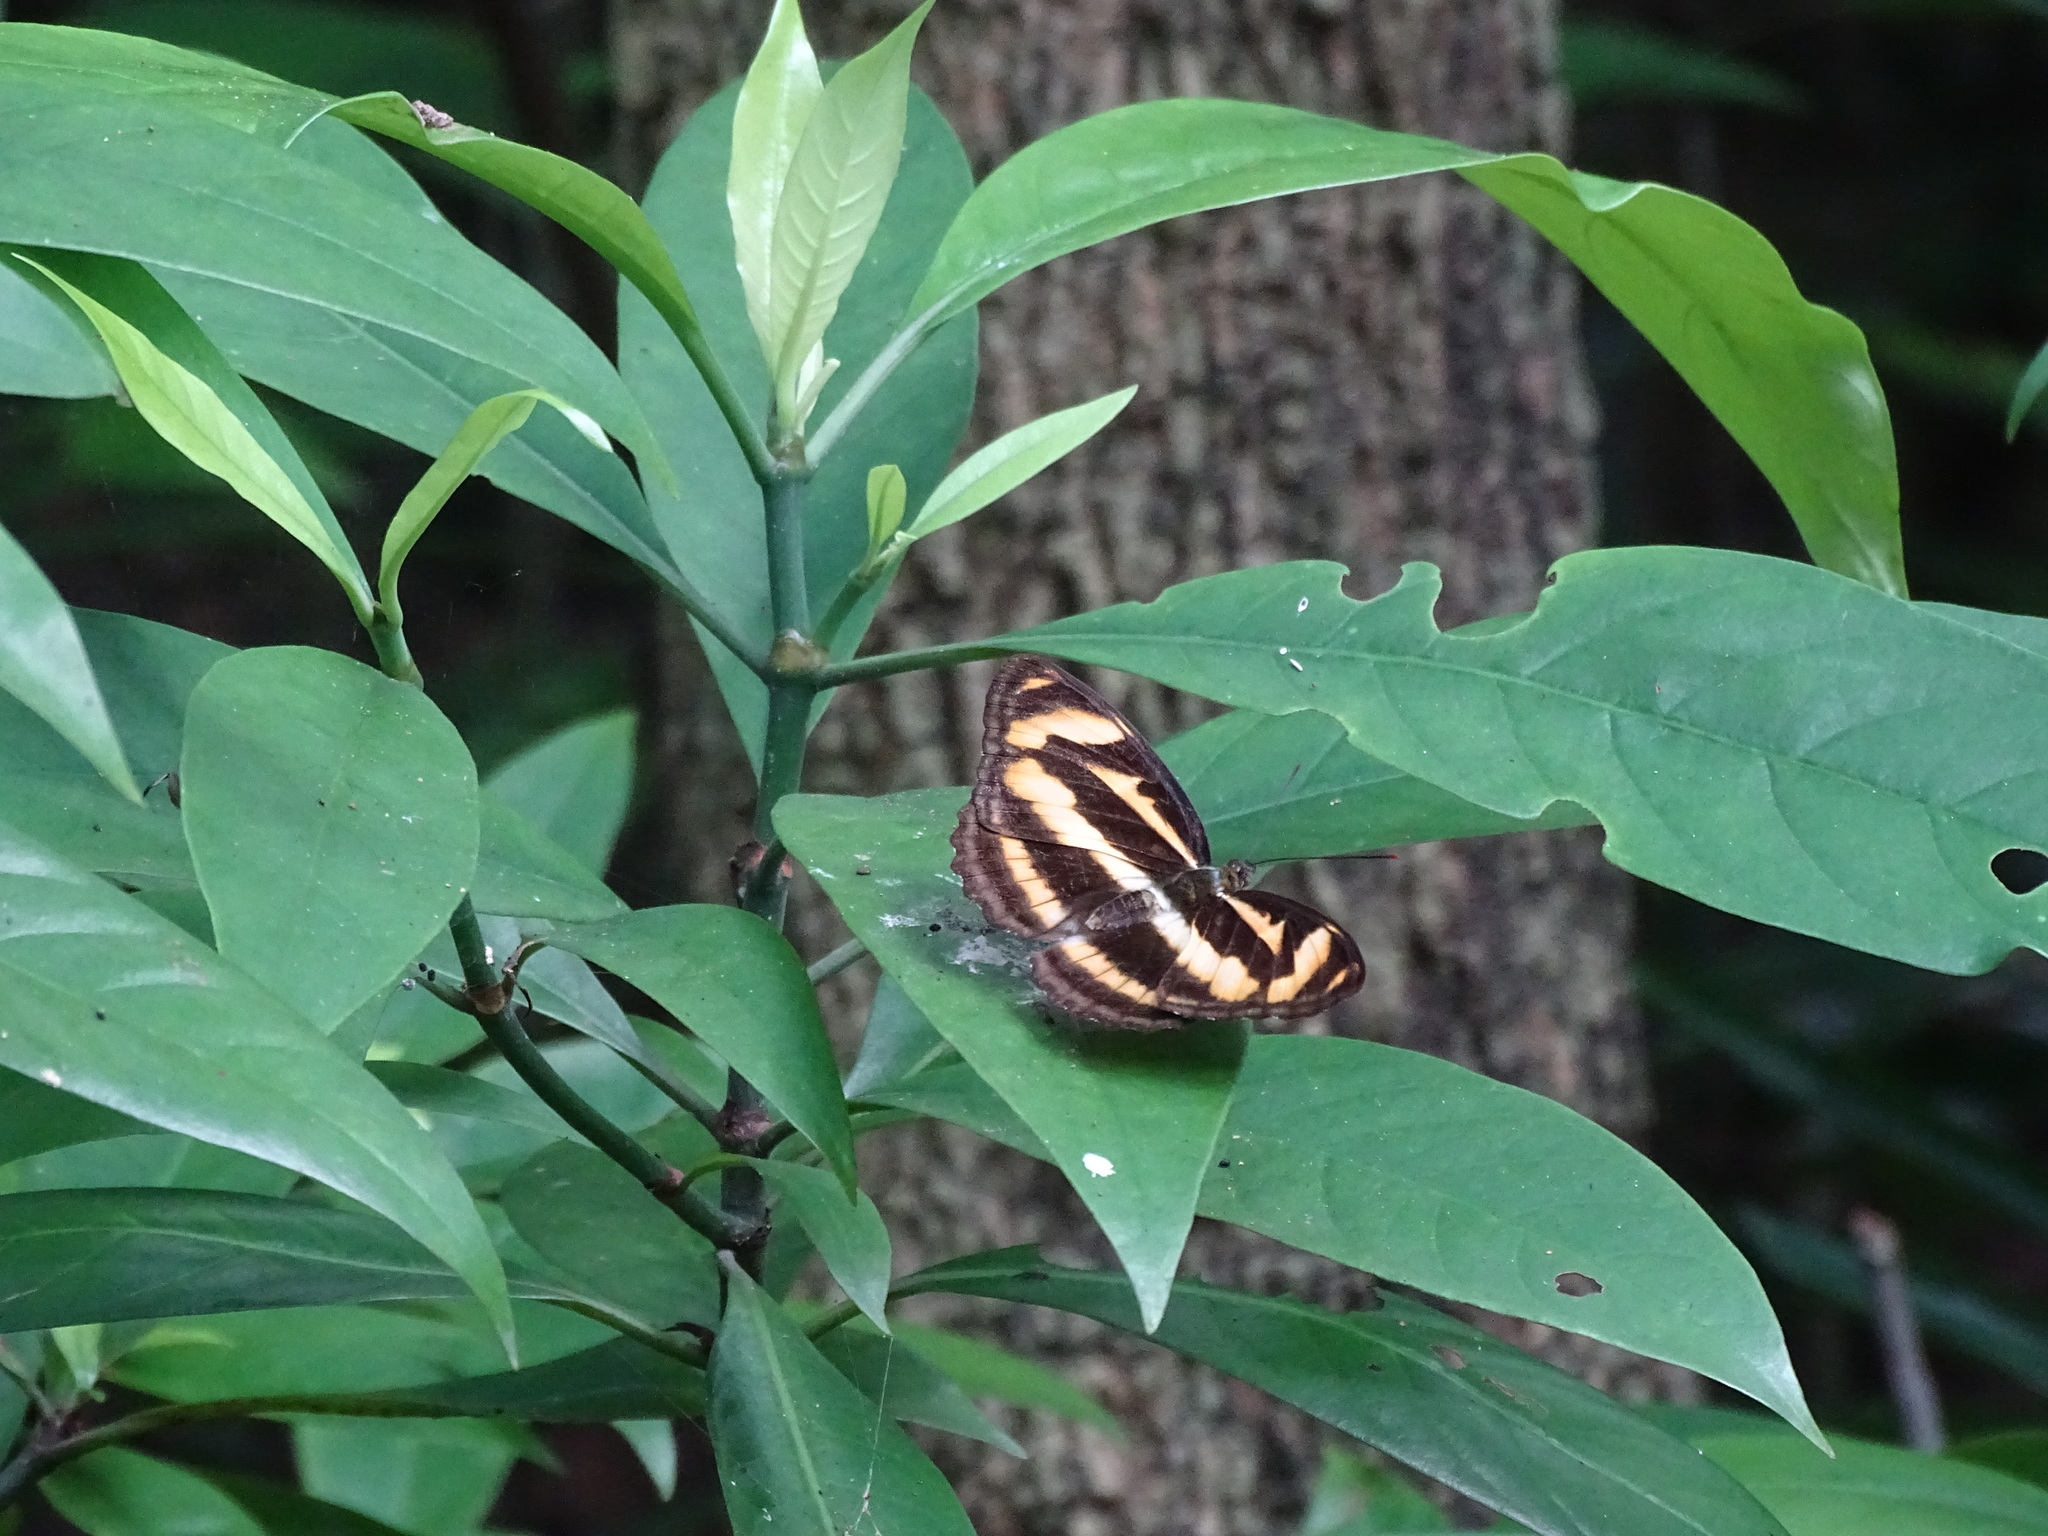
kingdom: Animalia
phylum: Arthropoda
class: Insecta
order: Lepidoptera
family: Nymphalidae
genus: Pantoporia
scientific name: Pantoporia cama
